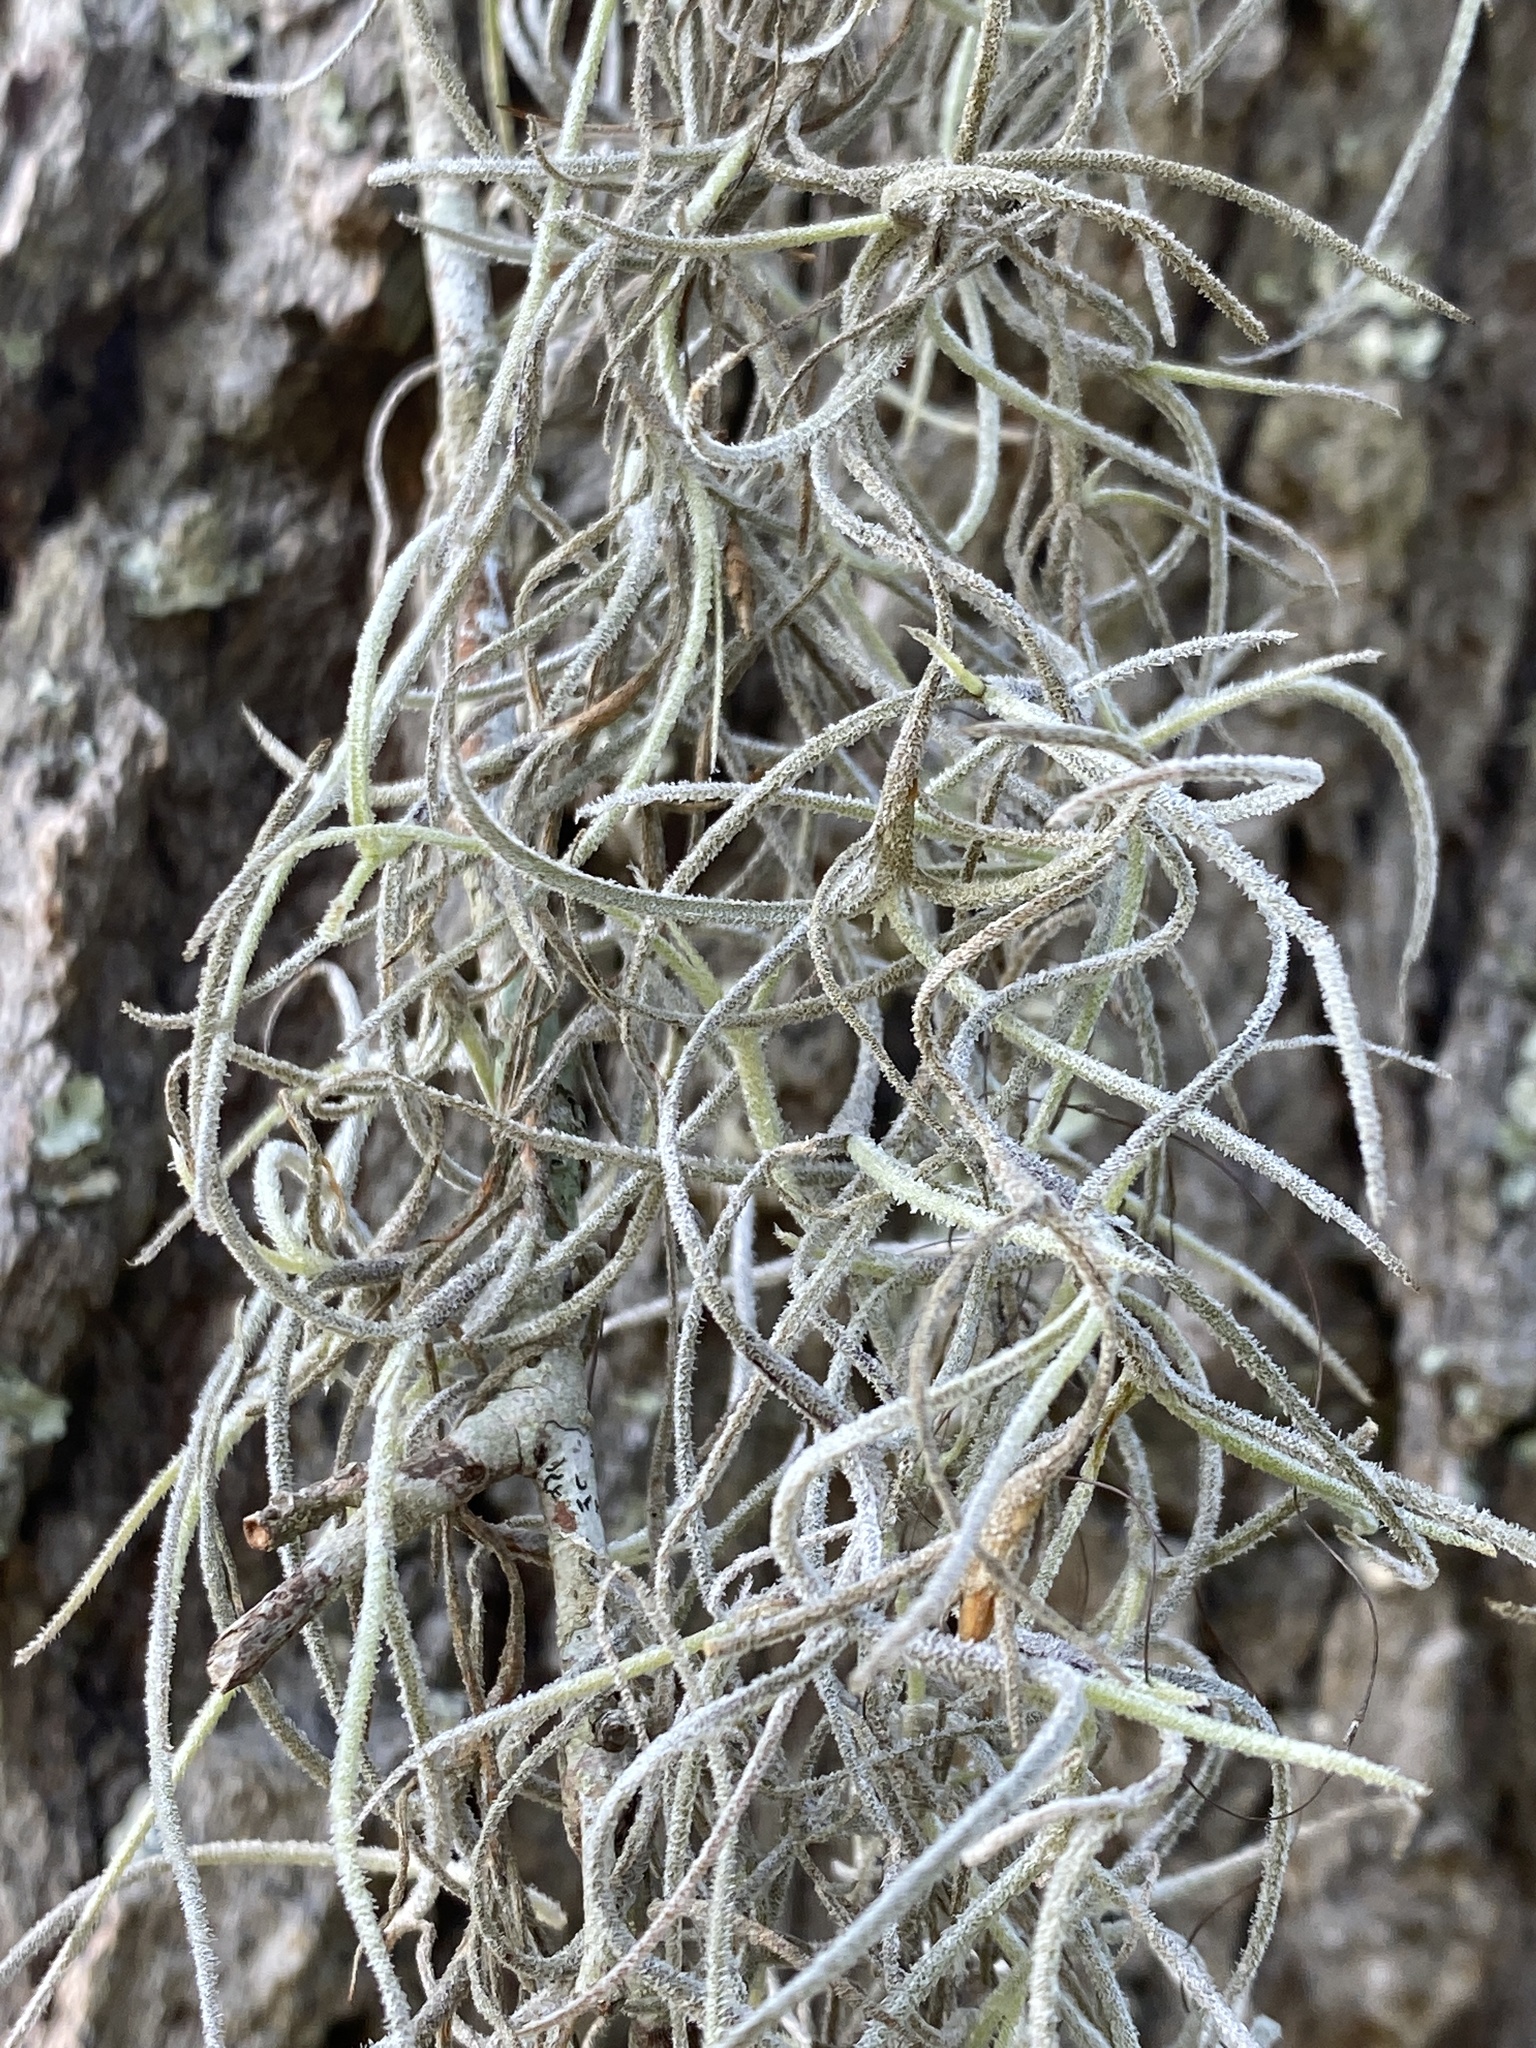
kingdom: Plantae
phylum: Tracheophyta
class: Liliopsida
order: Poales
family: Bromeliaceae
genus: Tillandsia
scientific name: Tillandsia usneoides
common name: Spanish moss
